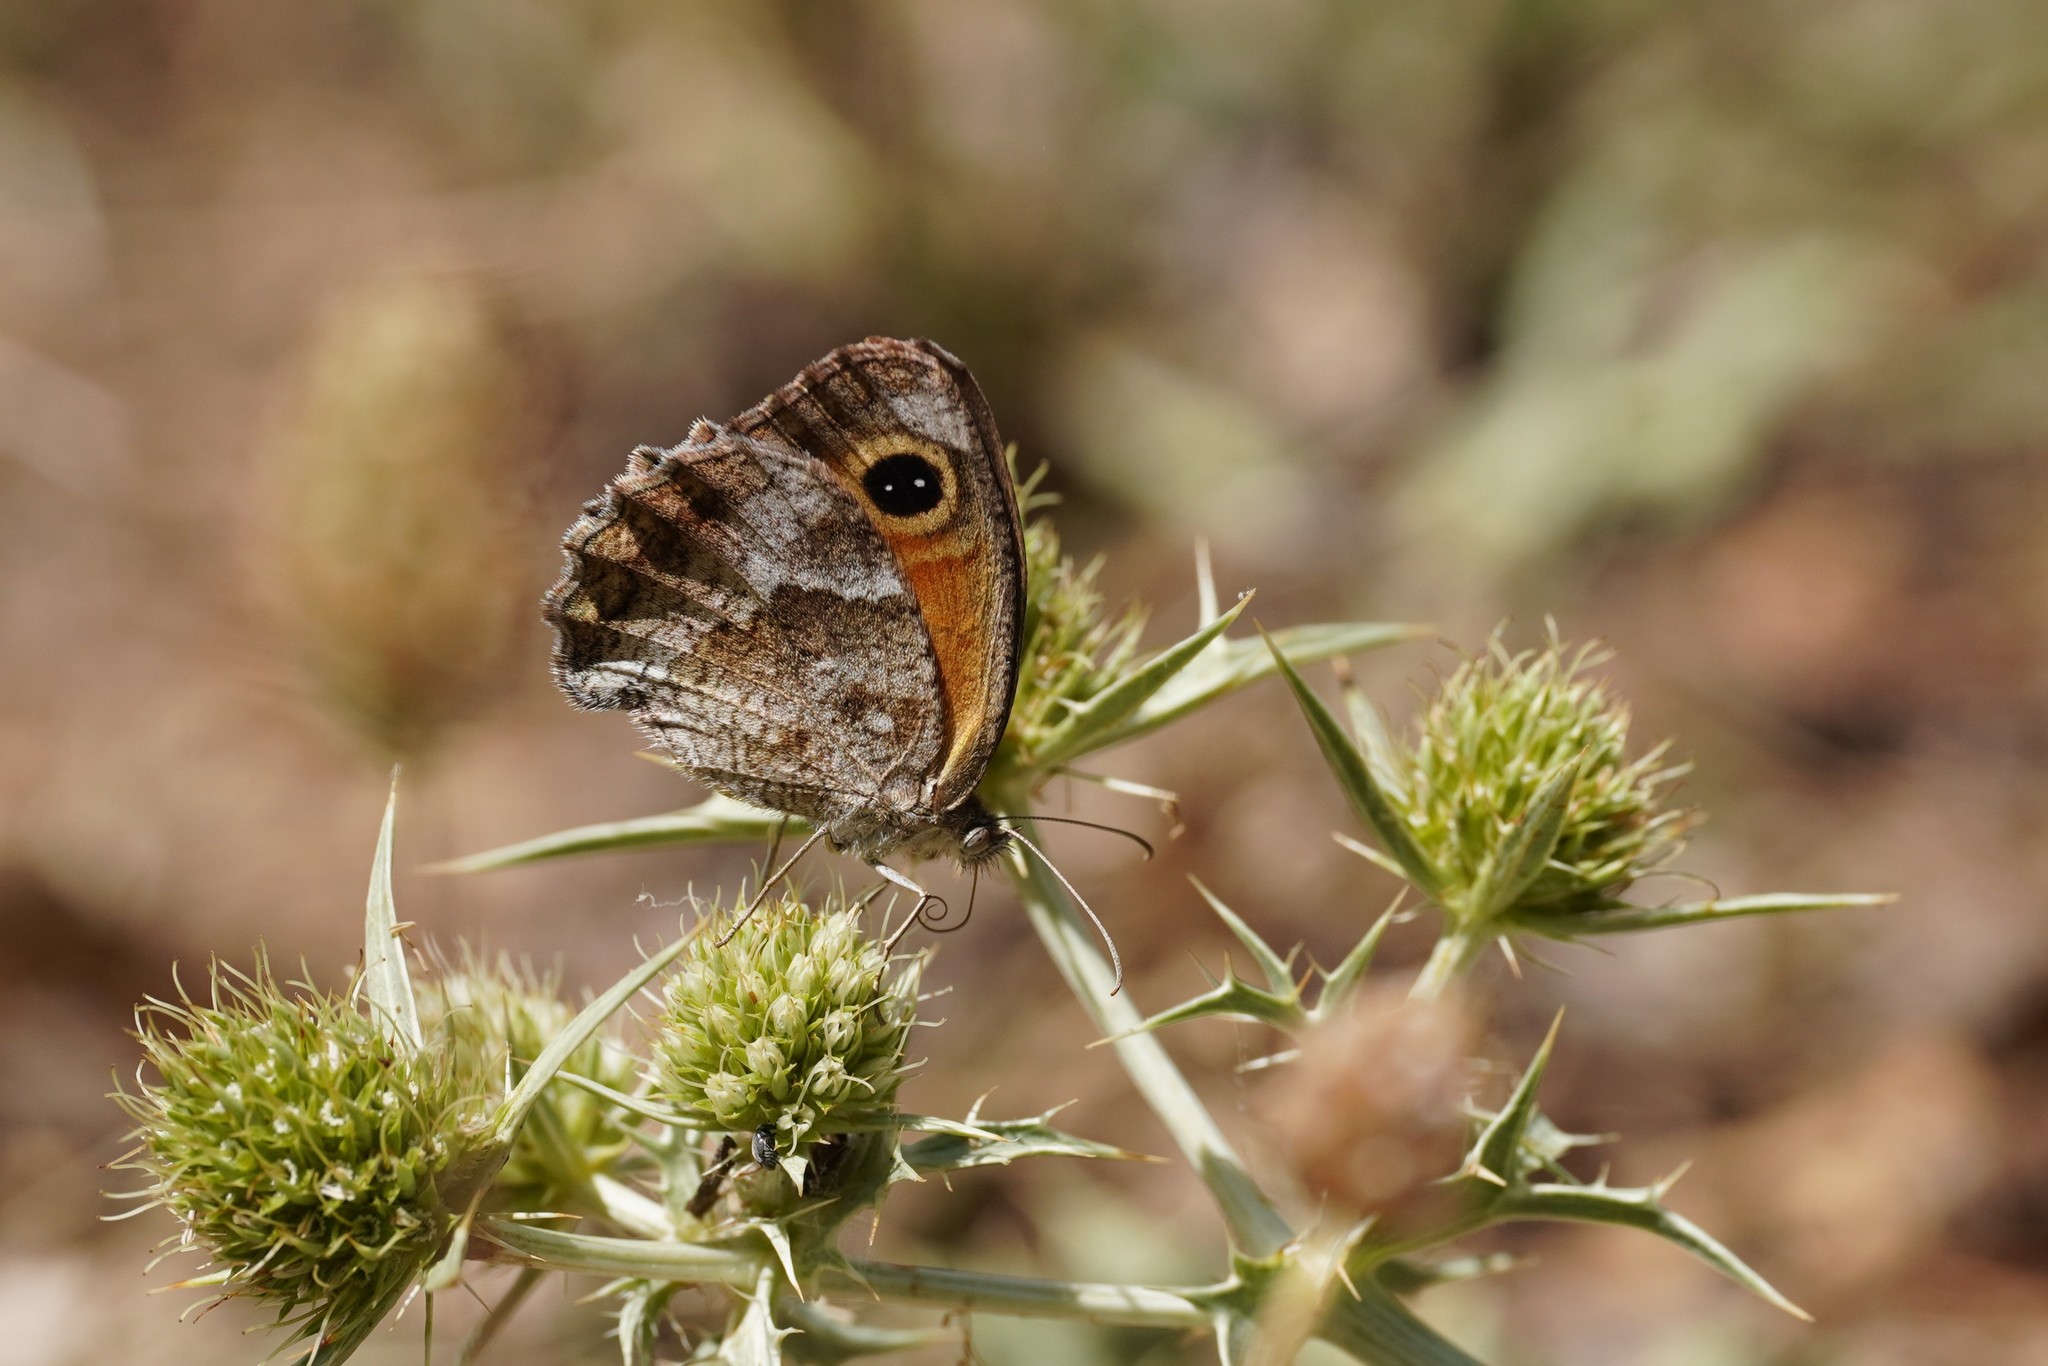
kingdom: Animalia
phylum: Arthropoda
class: Insecta
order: Lepidoptera
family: Nymphalidae
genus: Pyronia
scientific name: Pyronia cecilia
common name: Southern gatekeeper
